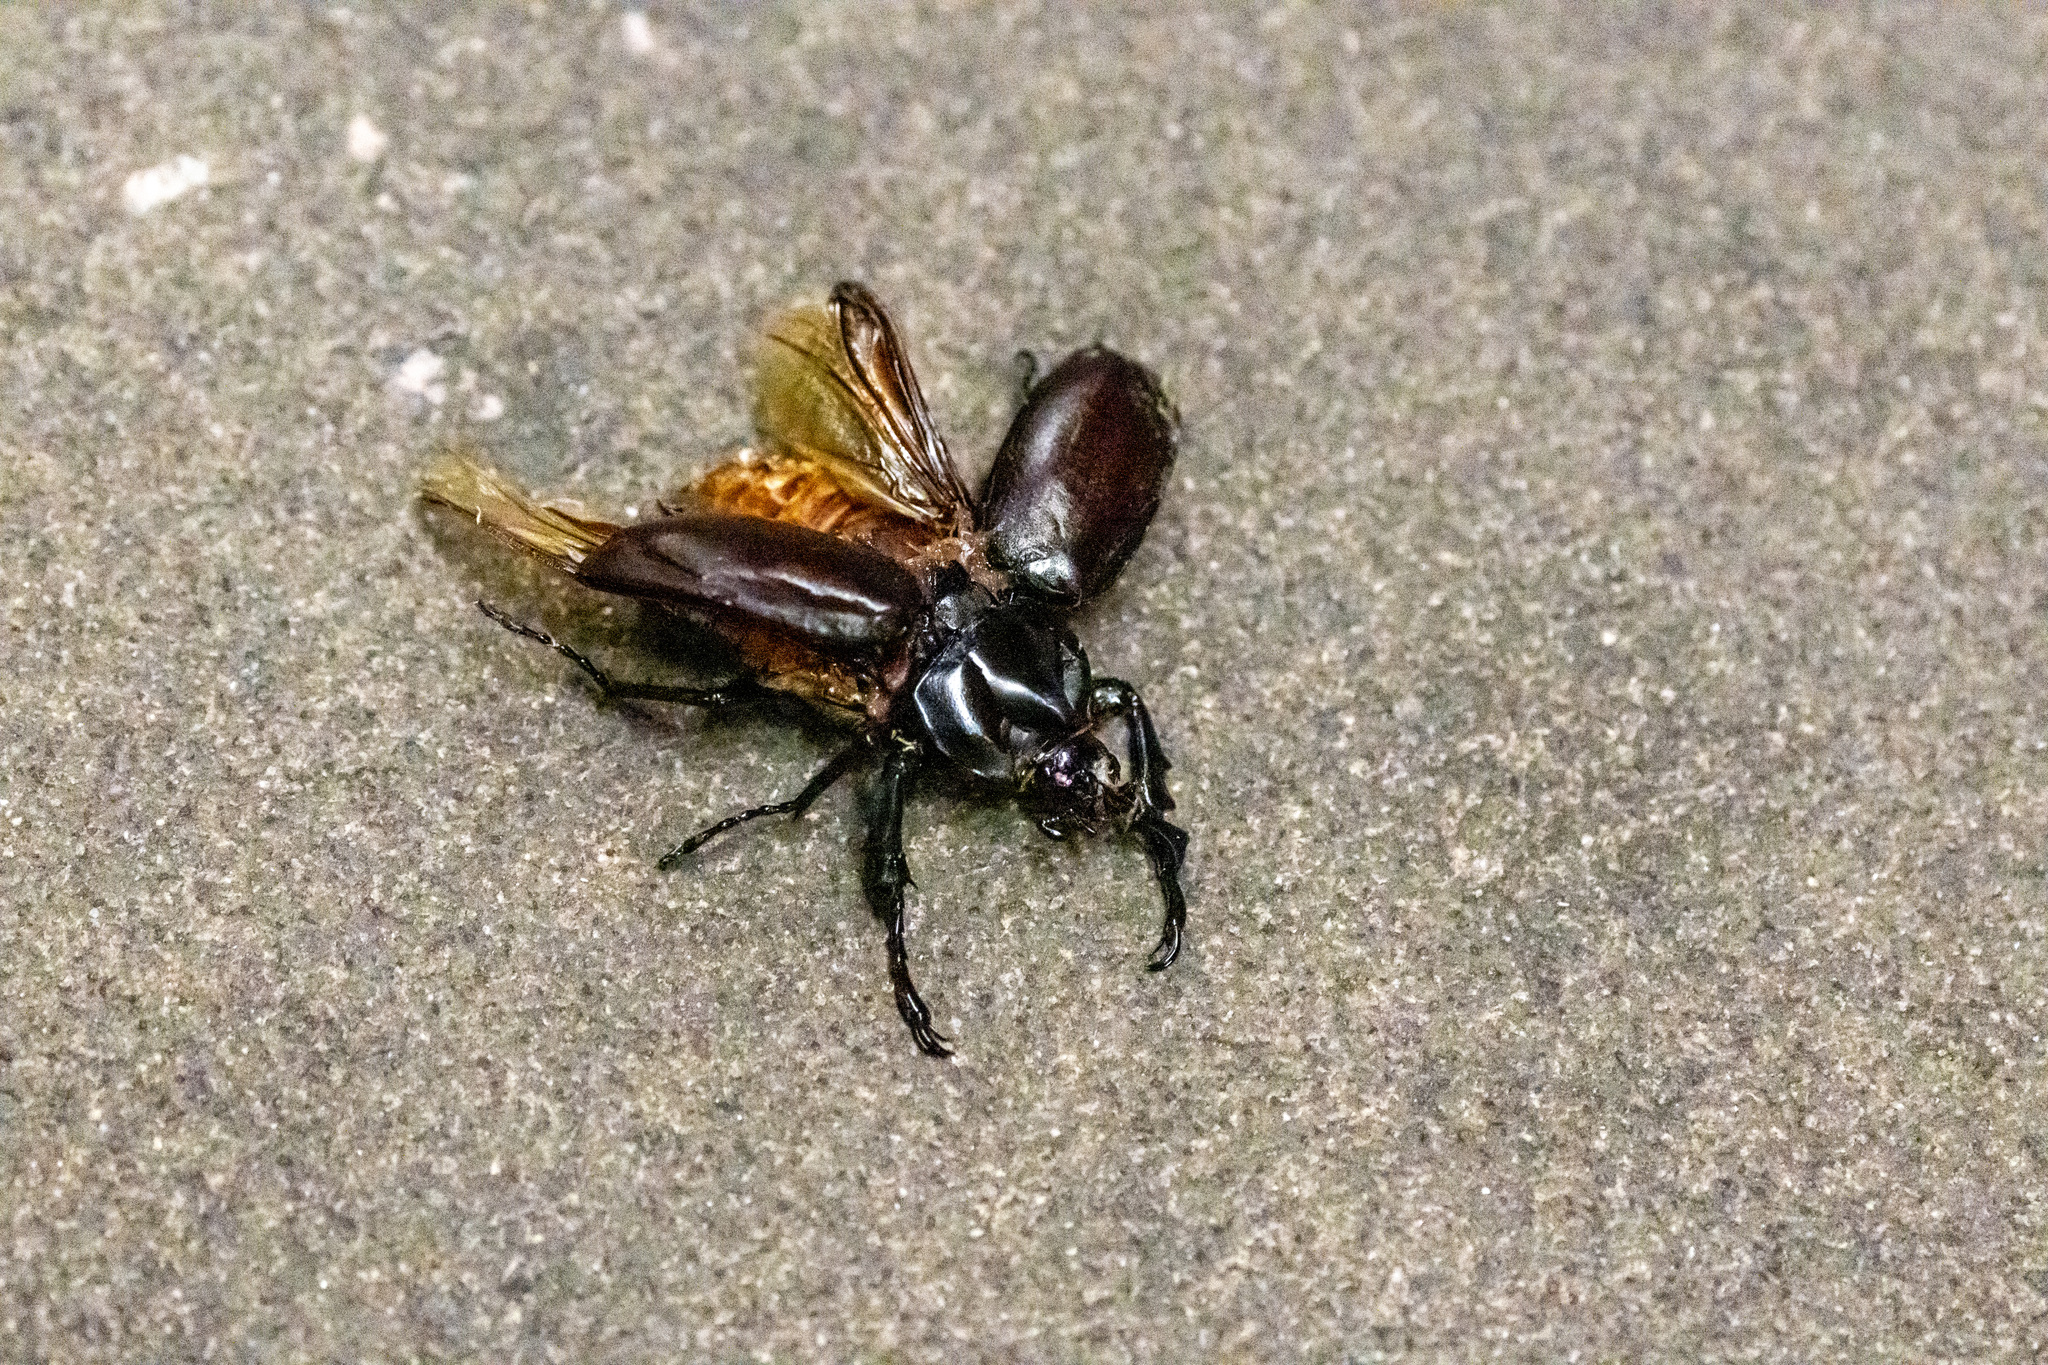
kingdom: Animalia
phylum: Arthropoda
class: Insecta
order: Coleoptera
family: Scarabaeidae
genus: Xylotrupes
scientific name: Xylotrupes socrates
